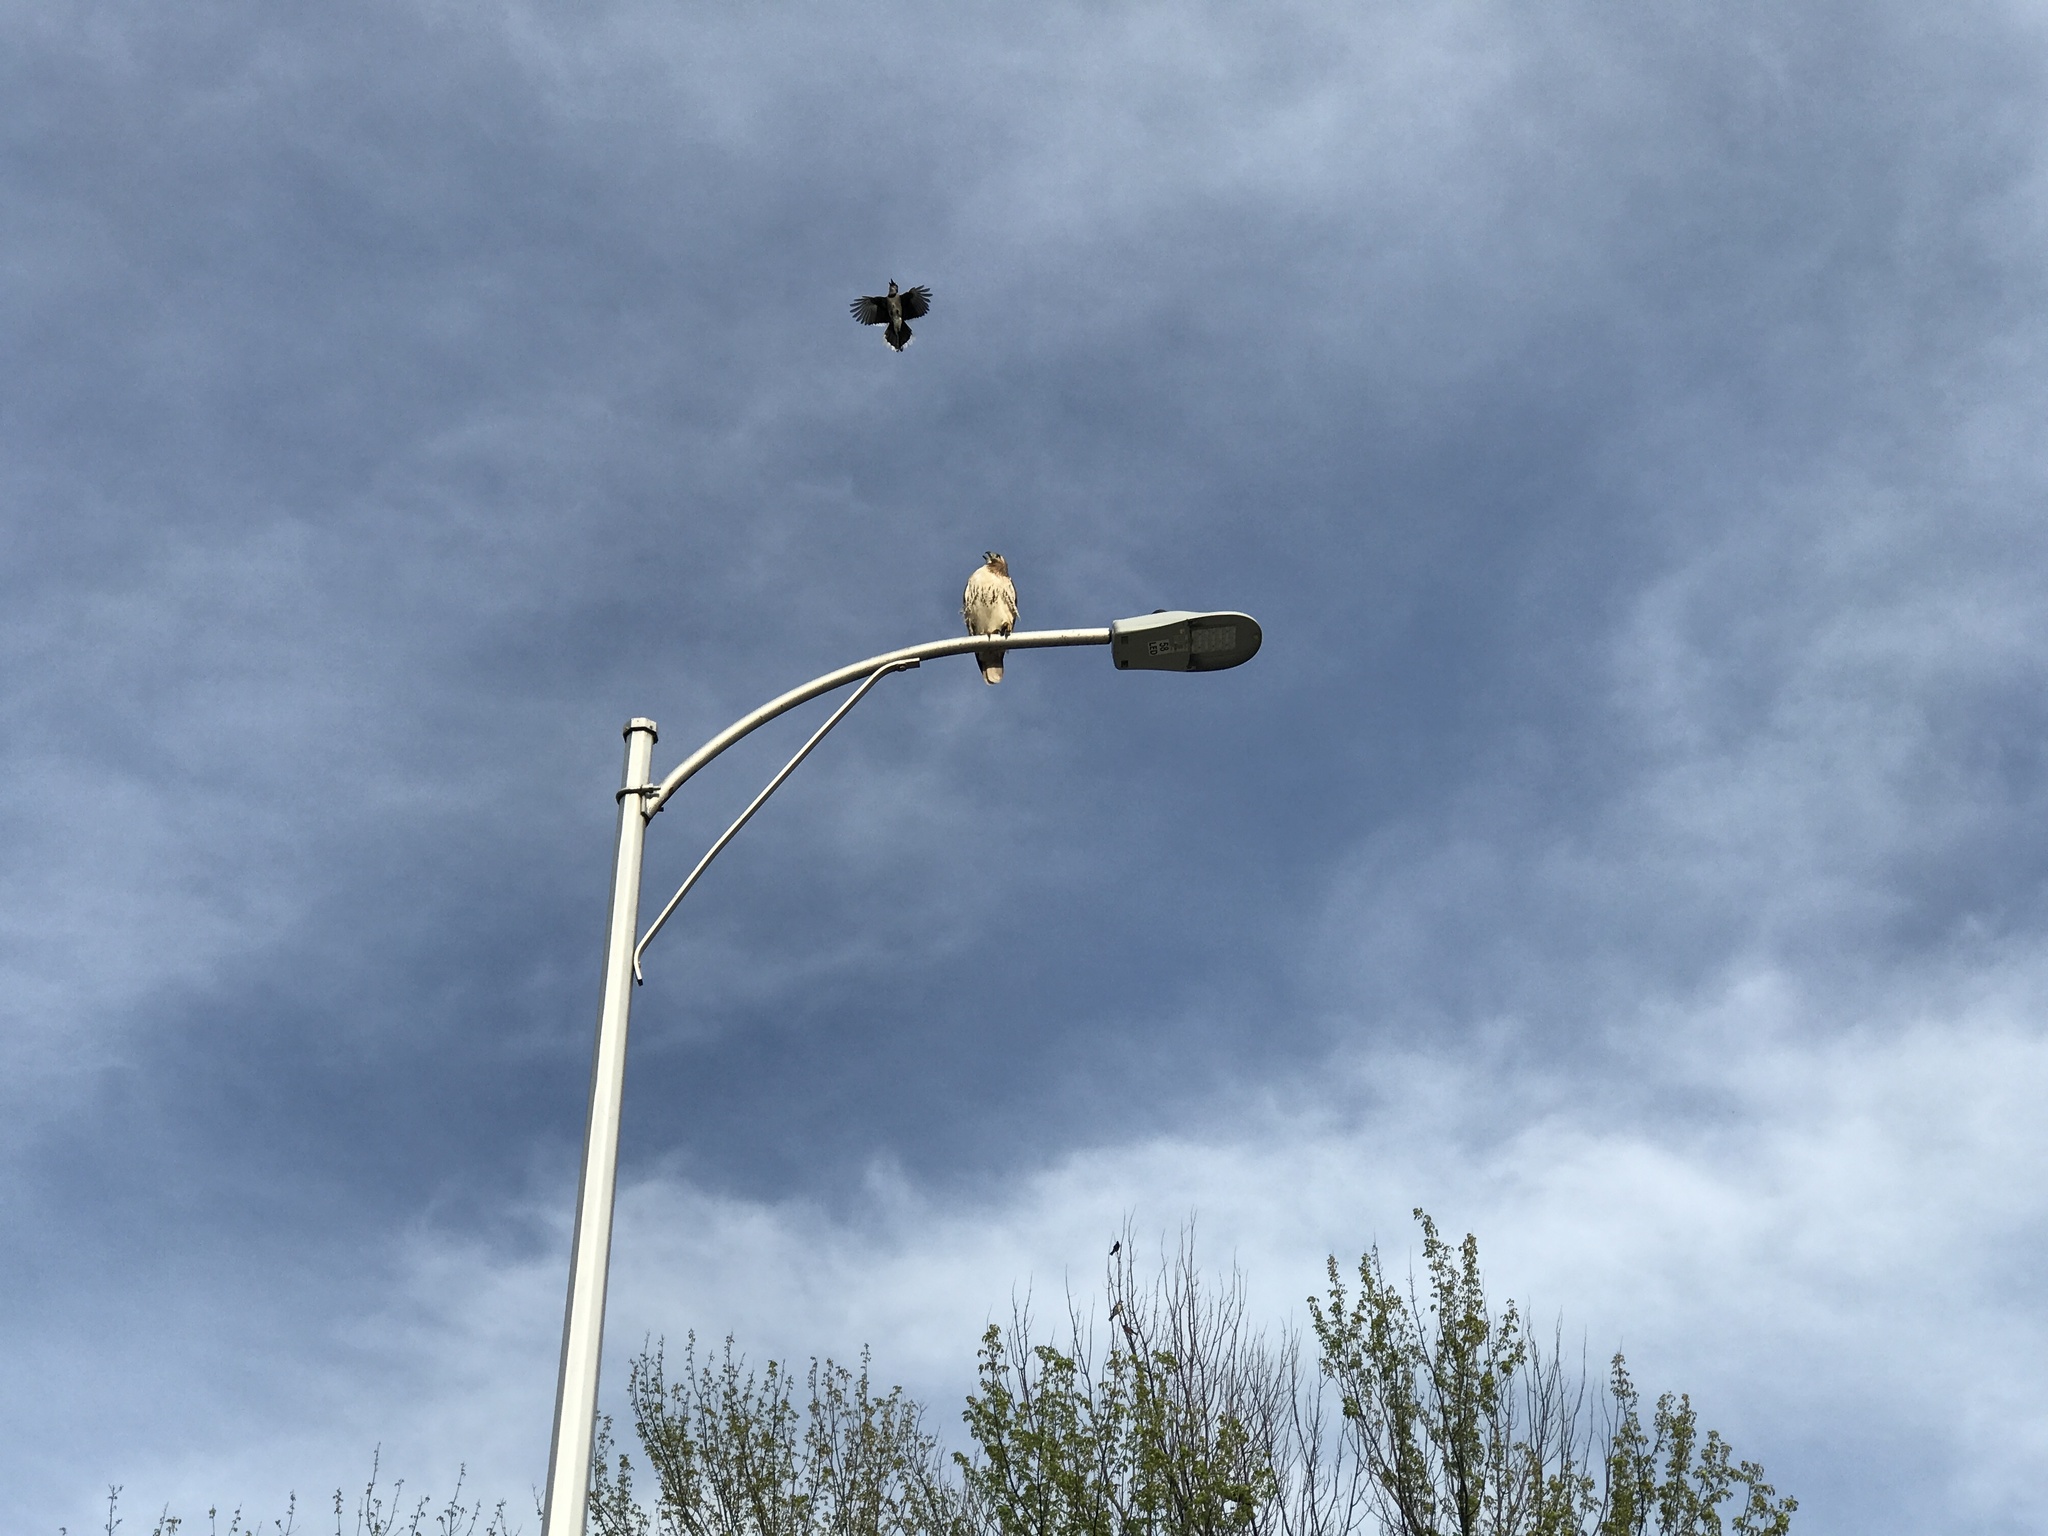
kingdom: Animalia
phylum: Chordata
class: Aves
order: Accipitriformes
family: Accipitridae
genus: Buteo
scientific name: Buteo jamaicensis
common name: Red-tailed hawk
